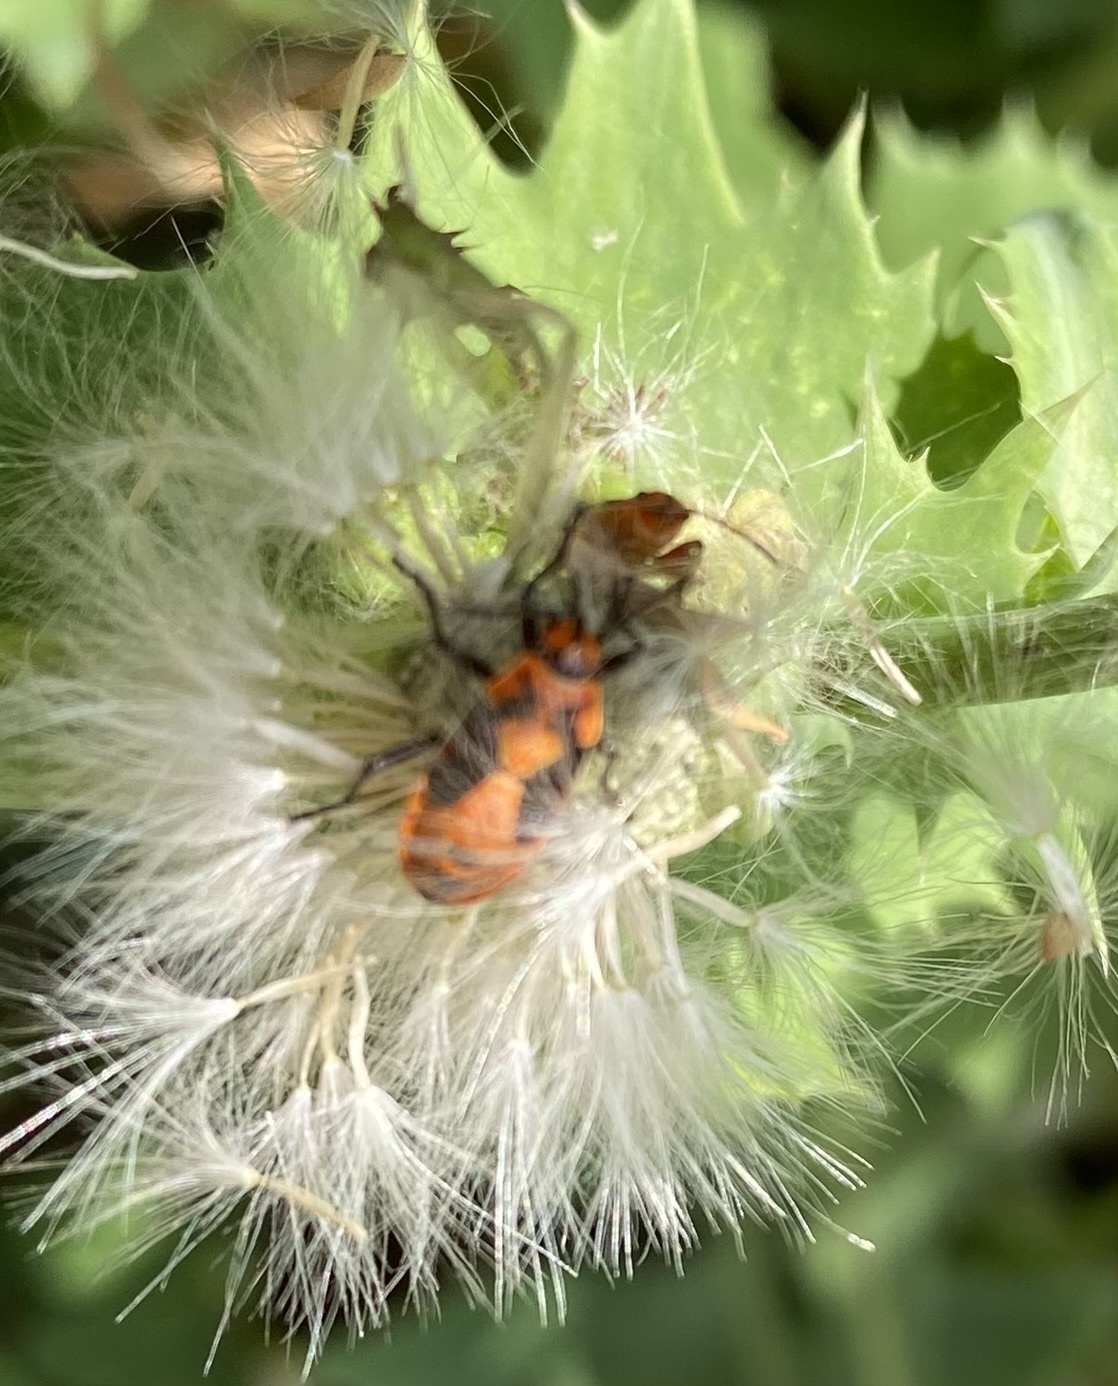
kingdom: Animalia
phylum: Arthropoda
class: Insecta
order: Hemiptera
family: Lygaeidae
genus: Spilostethus
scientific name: Spilostethus saxatilis
